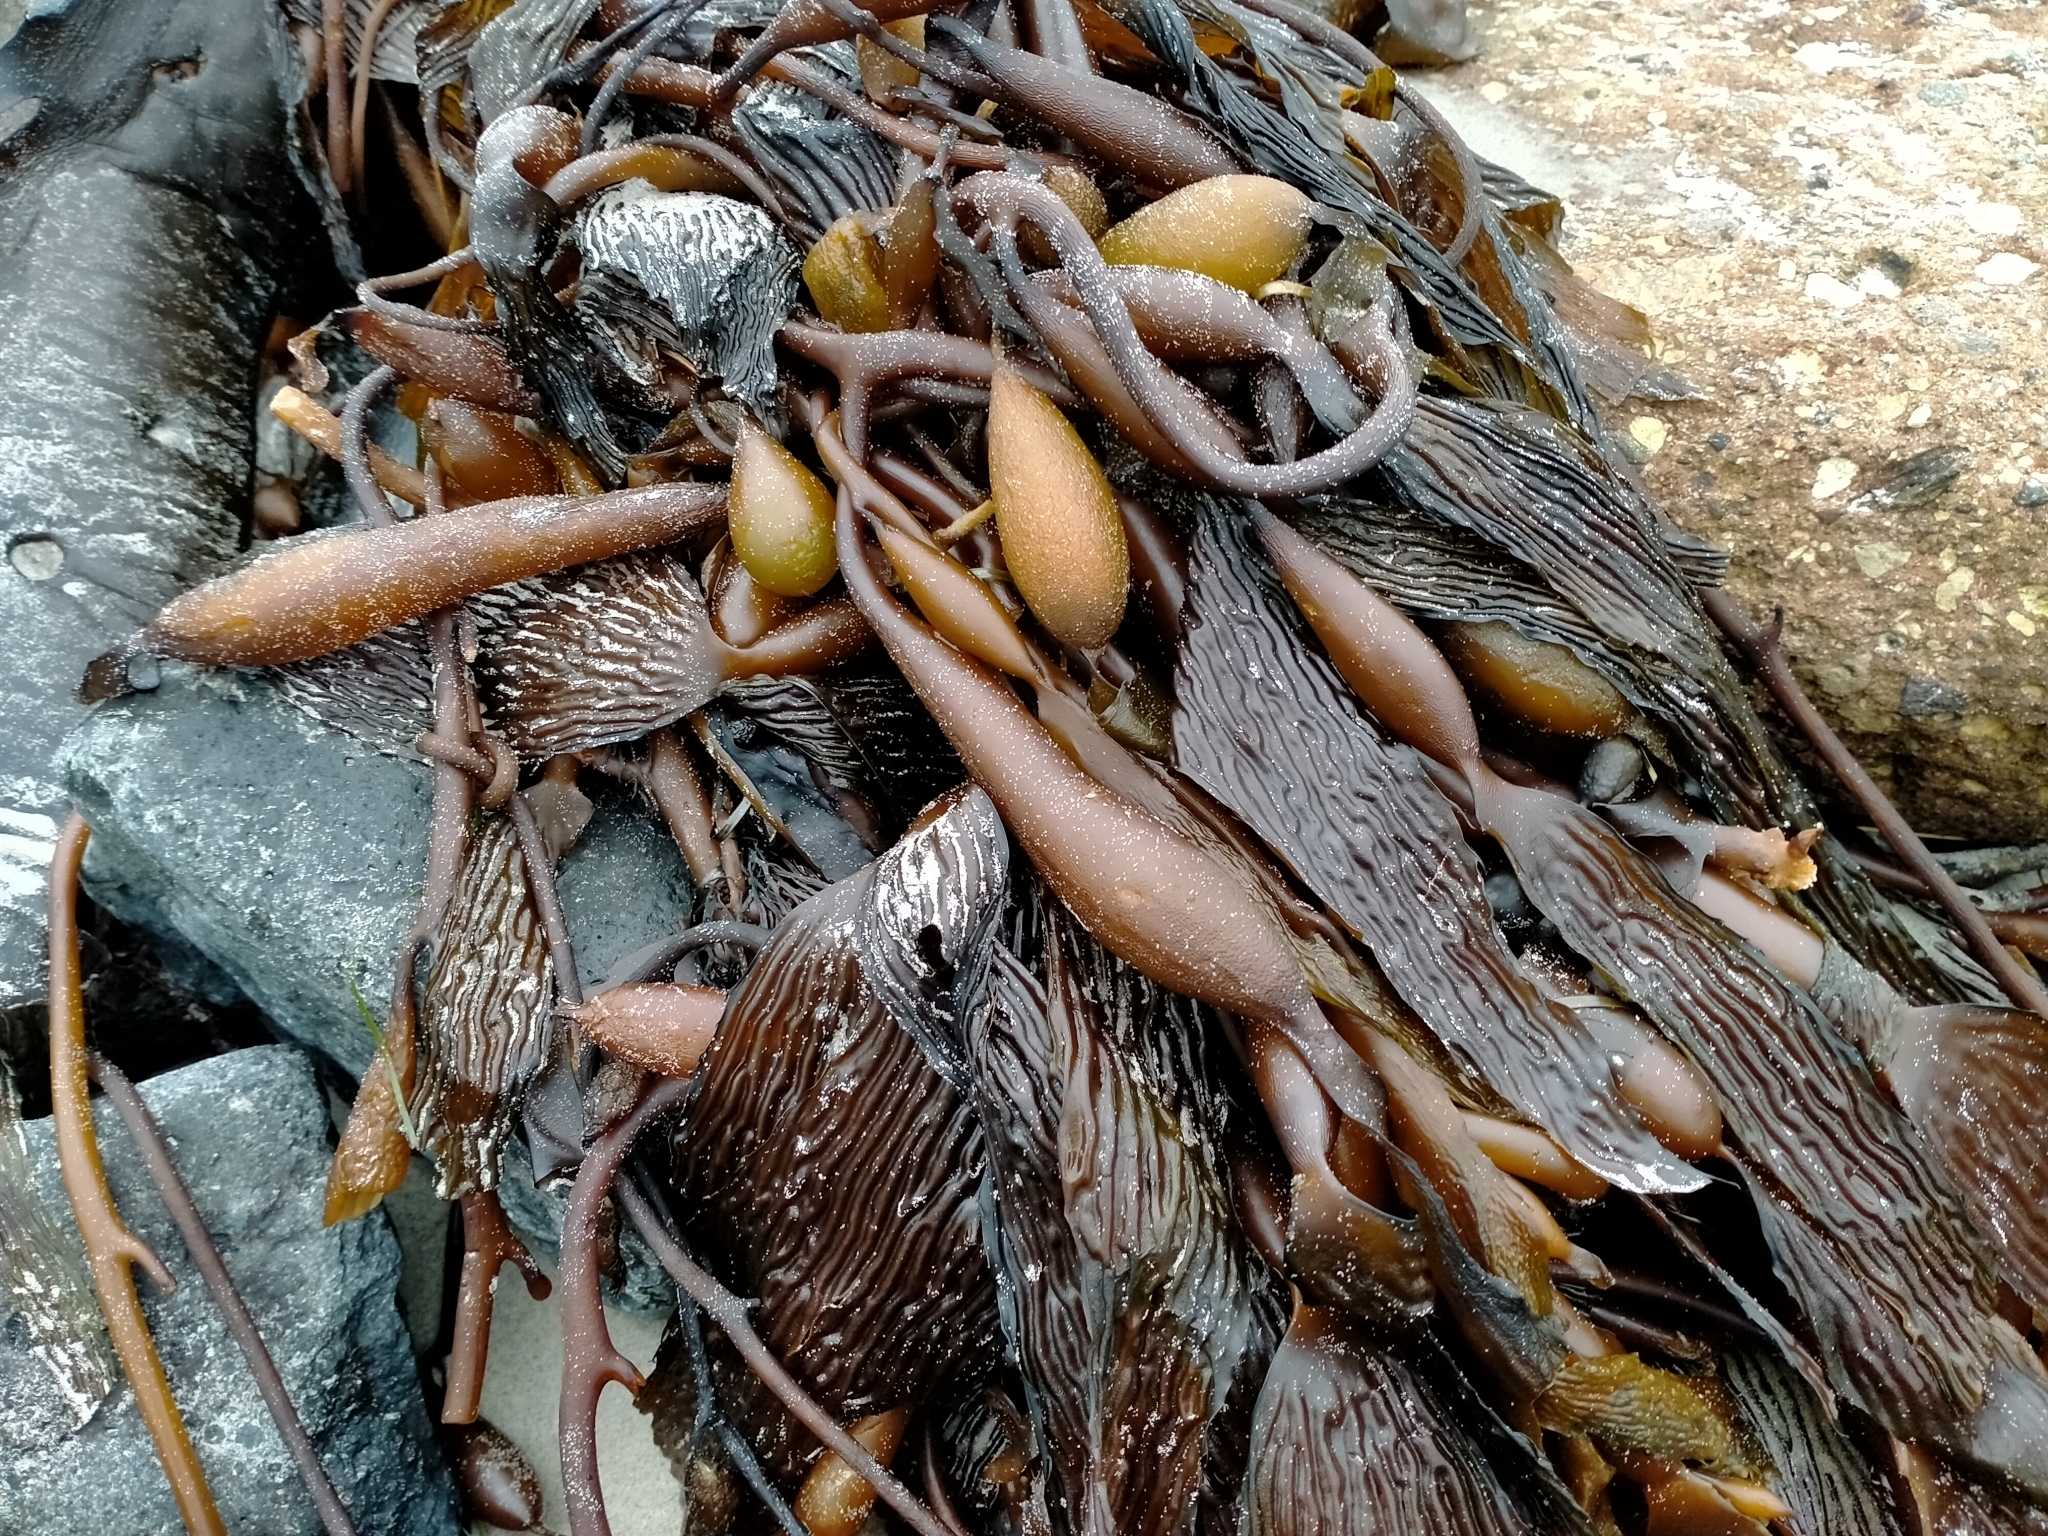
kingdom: Chromista
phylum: Ochrophyta
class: Phaeophyceae
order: Laminariales
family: Laminariaceae
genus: Macrocystis
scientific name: Macrocystis pyrifera
